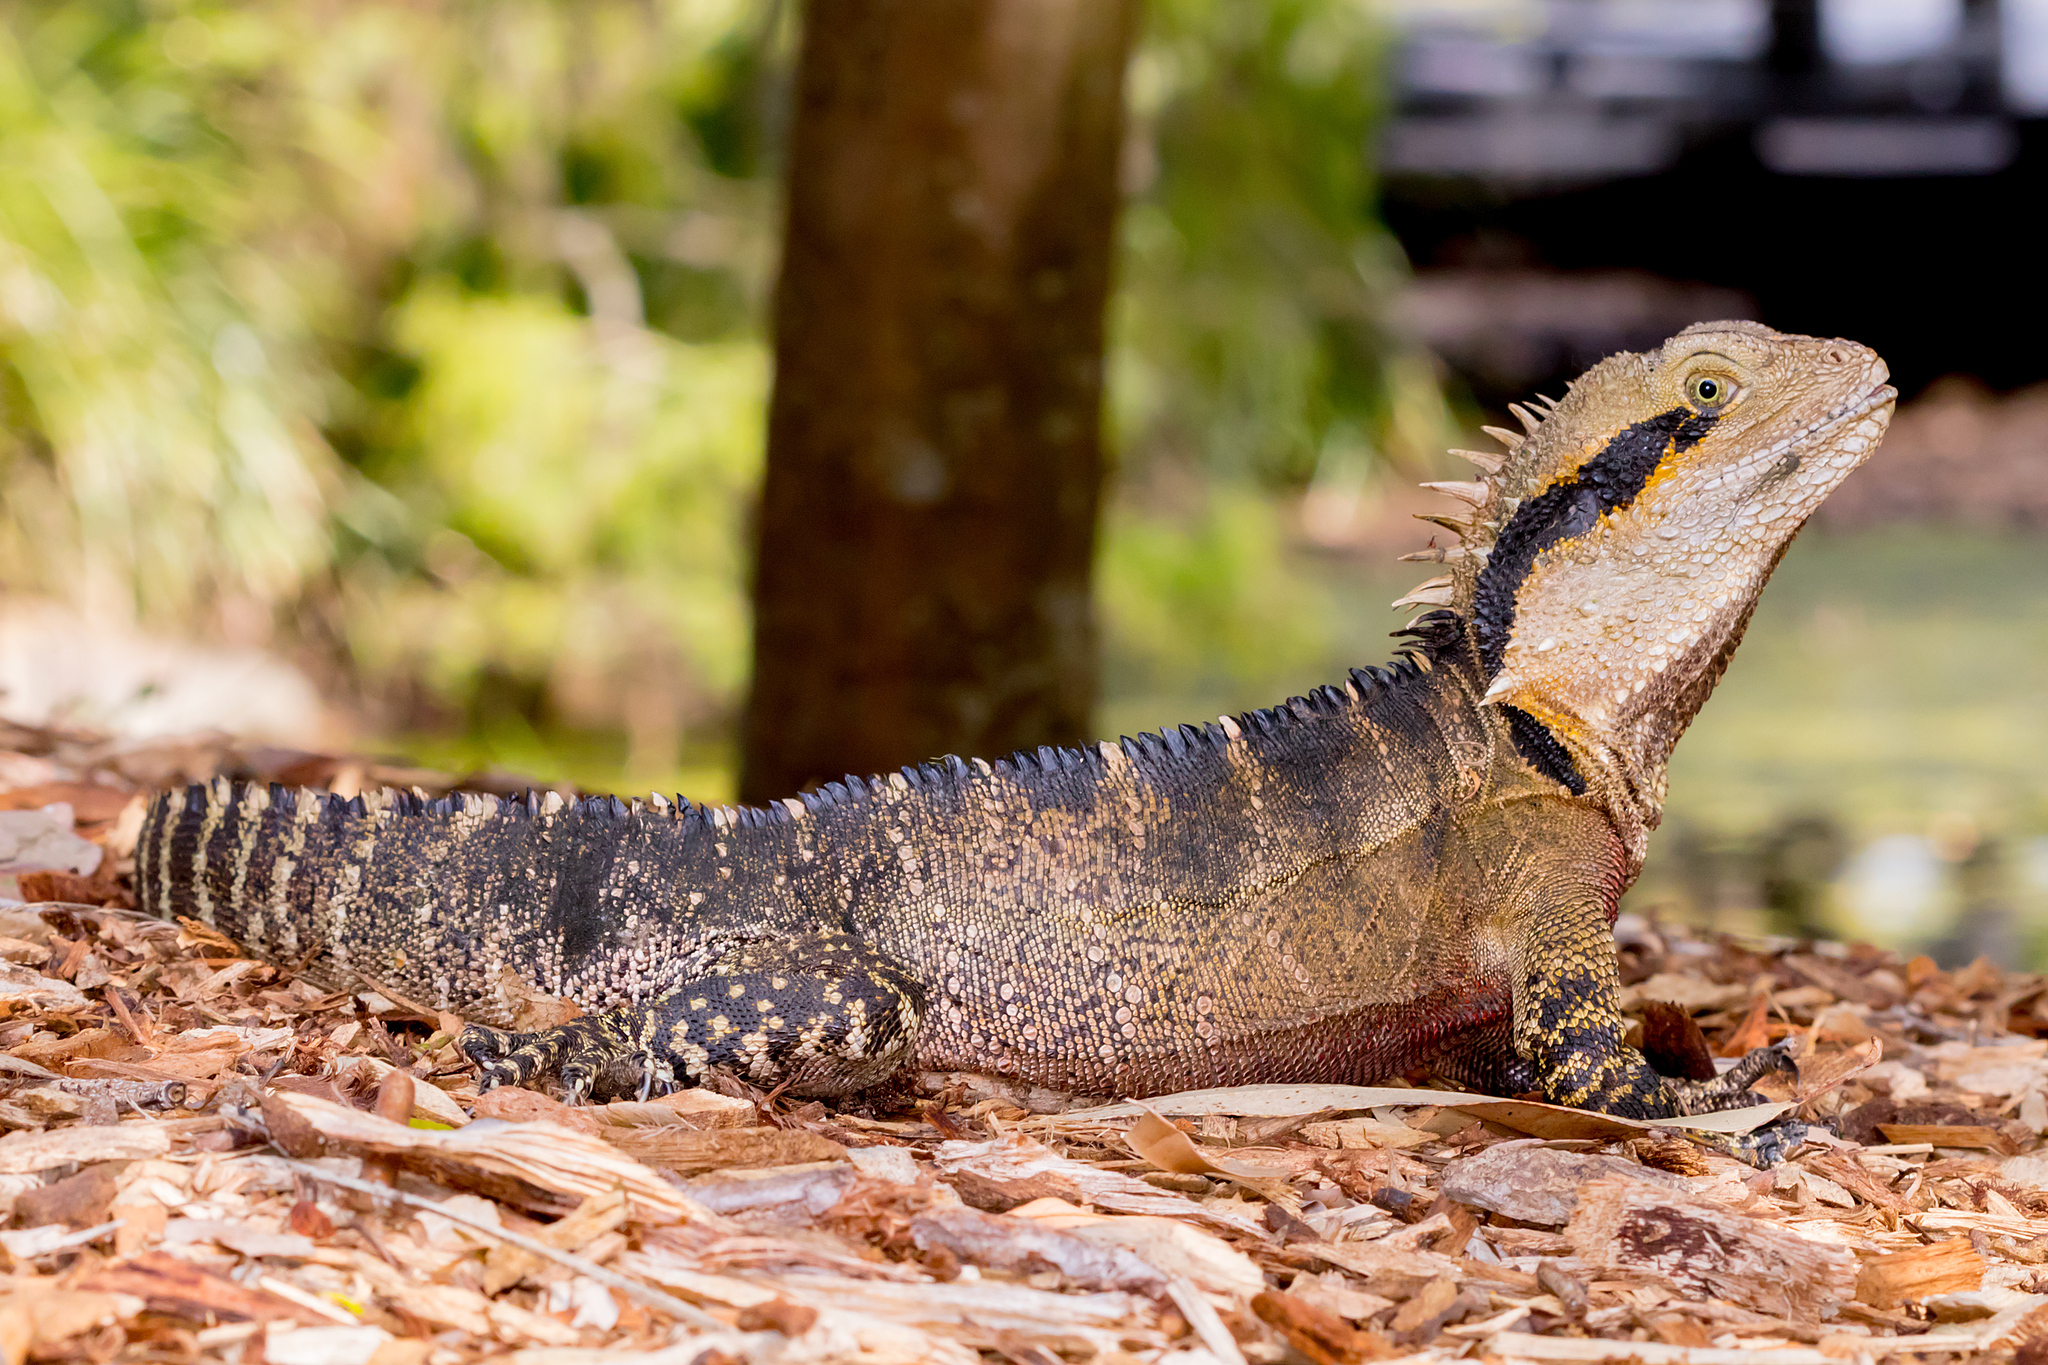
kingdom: Animalia
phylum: Chordata
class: Squamata
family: Agamidae
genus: Intellagama
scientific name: Intellagama lesueurii
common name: Eastern water dragon
